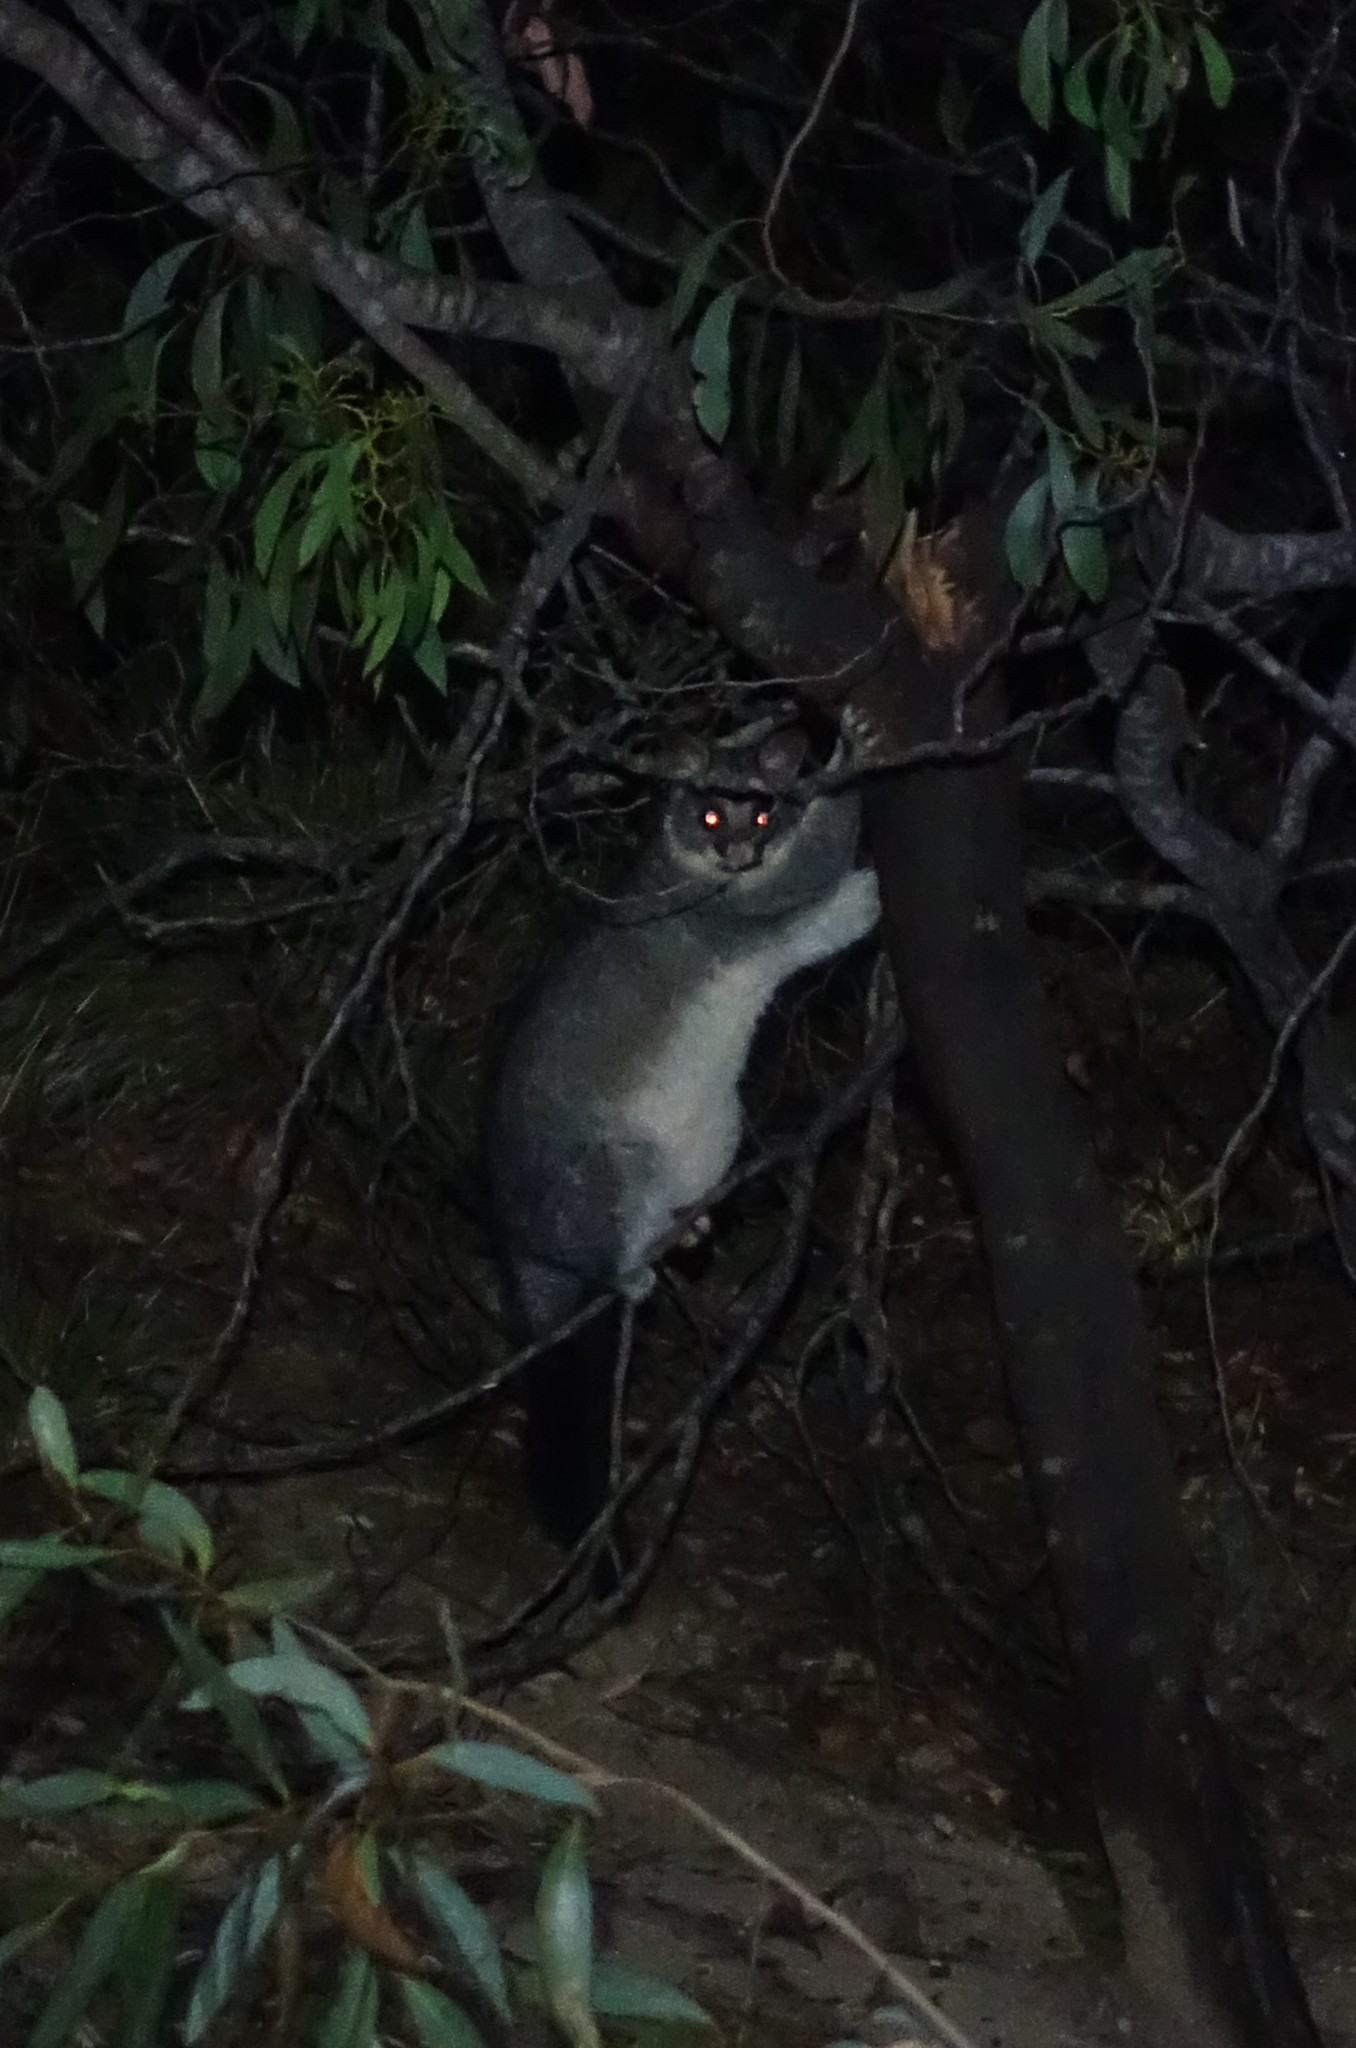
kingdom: Animalia
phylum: Chordata
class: Mammalia
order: Diprotodontia
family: Phalangeridae
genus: Trichosurus
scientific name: Trichosurus vulpecula
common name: Common brushtail
